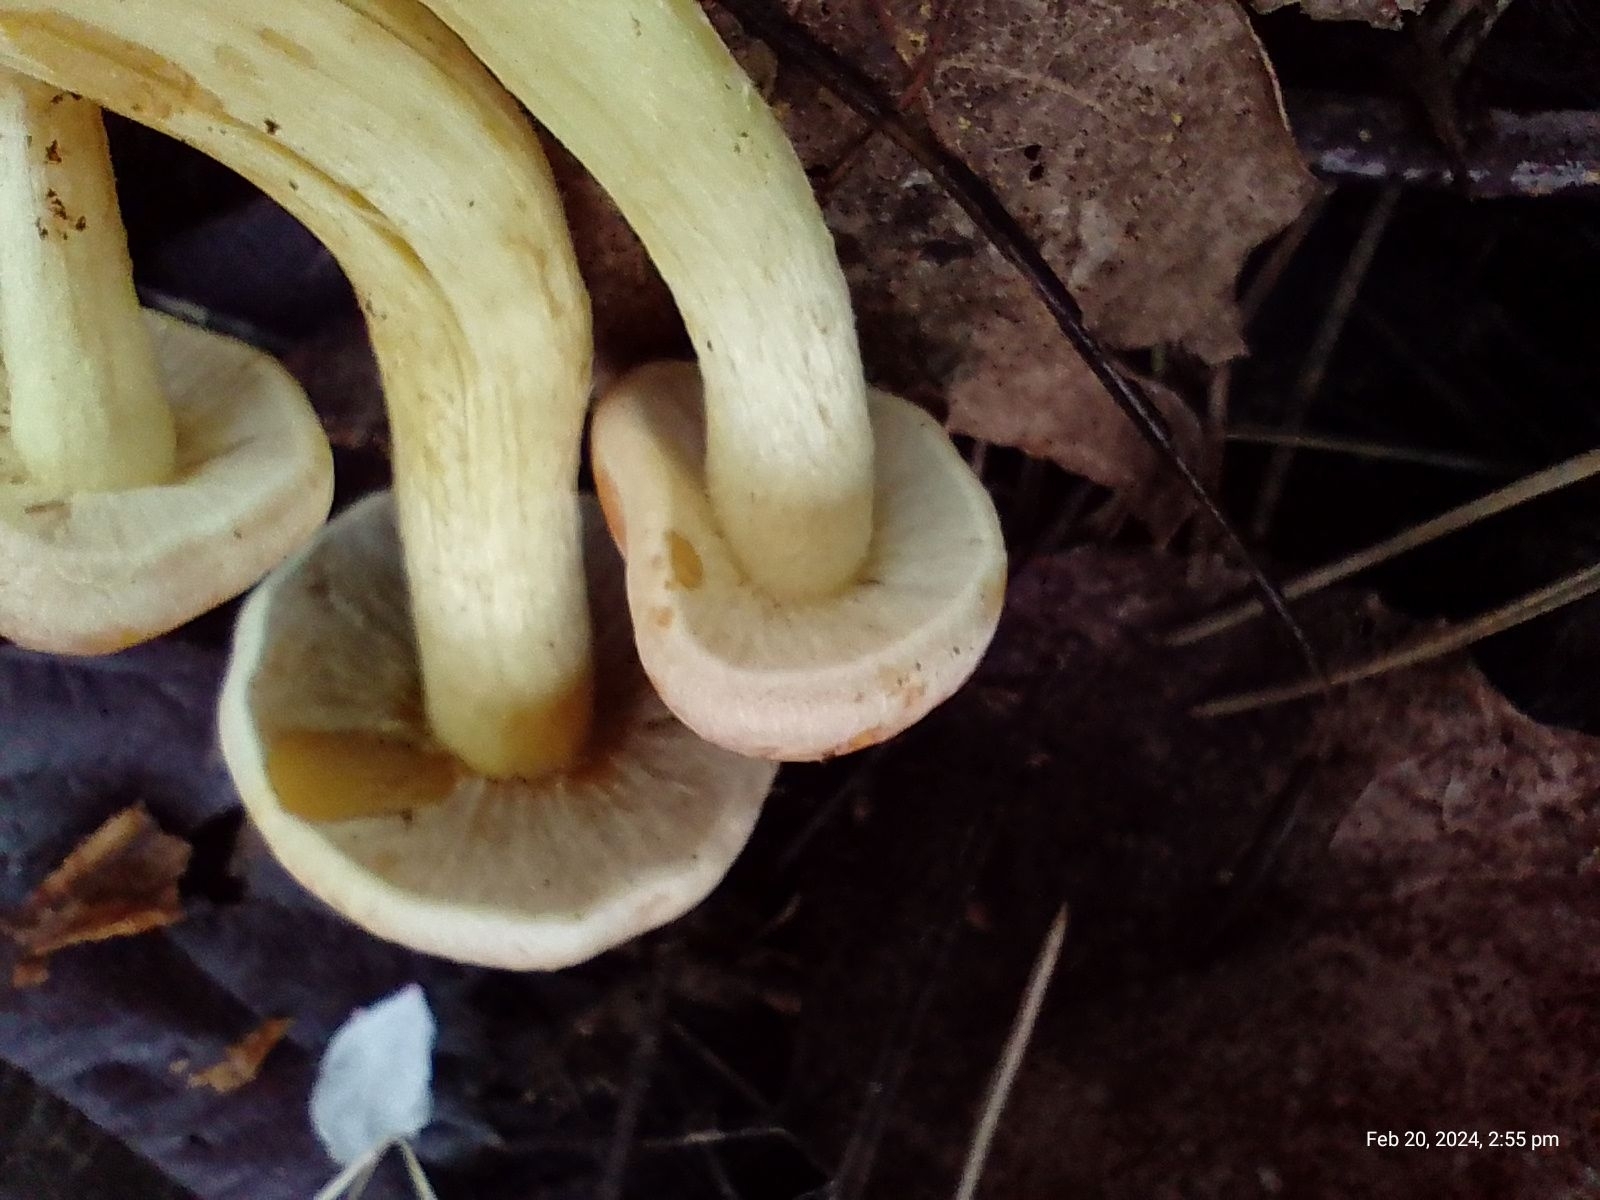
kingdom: Fungi
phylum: Basidiomycota
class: Agaricomycetes
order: Agaricales
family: Strophariaceae
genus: Hypholoma
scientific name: Hypholoma fasciculare
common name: Sulphur tuft
